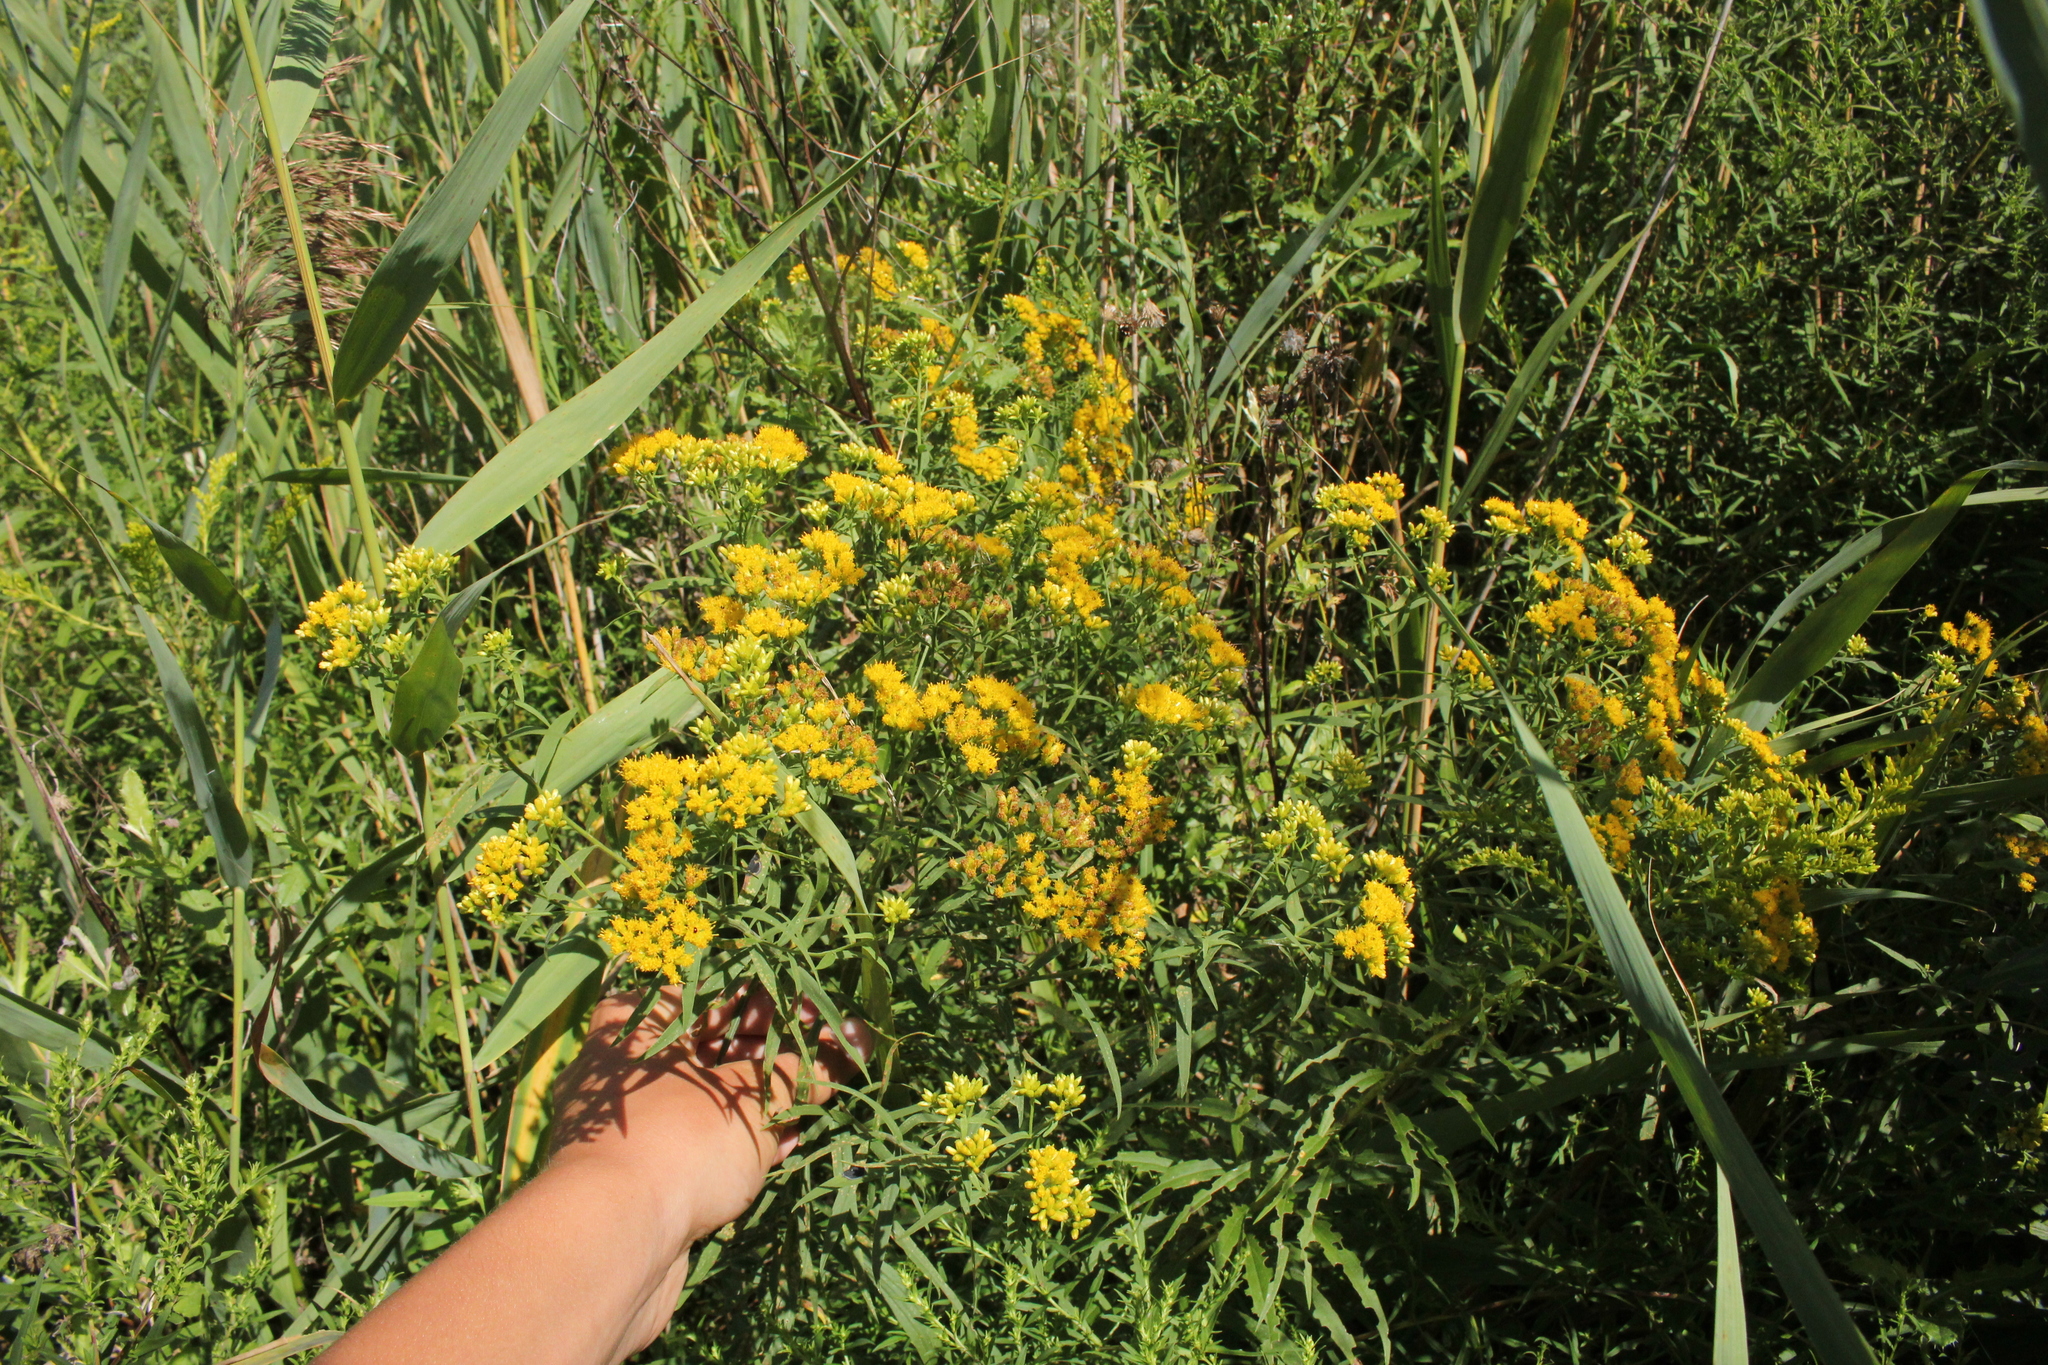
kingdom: Plantae
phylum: Tracheophyta
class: Magnoliopsida
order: Asterales
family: Asteraceae
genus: Euthamia
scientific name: Euthamia graminifolia
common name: Common goldentop
